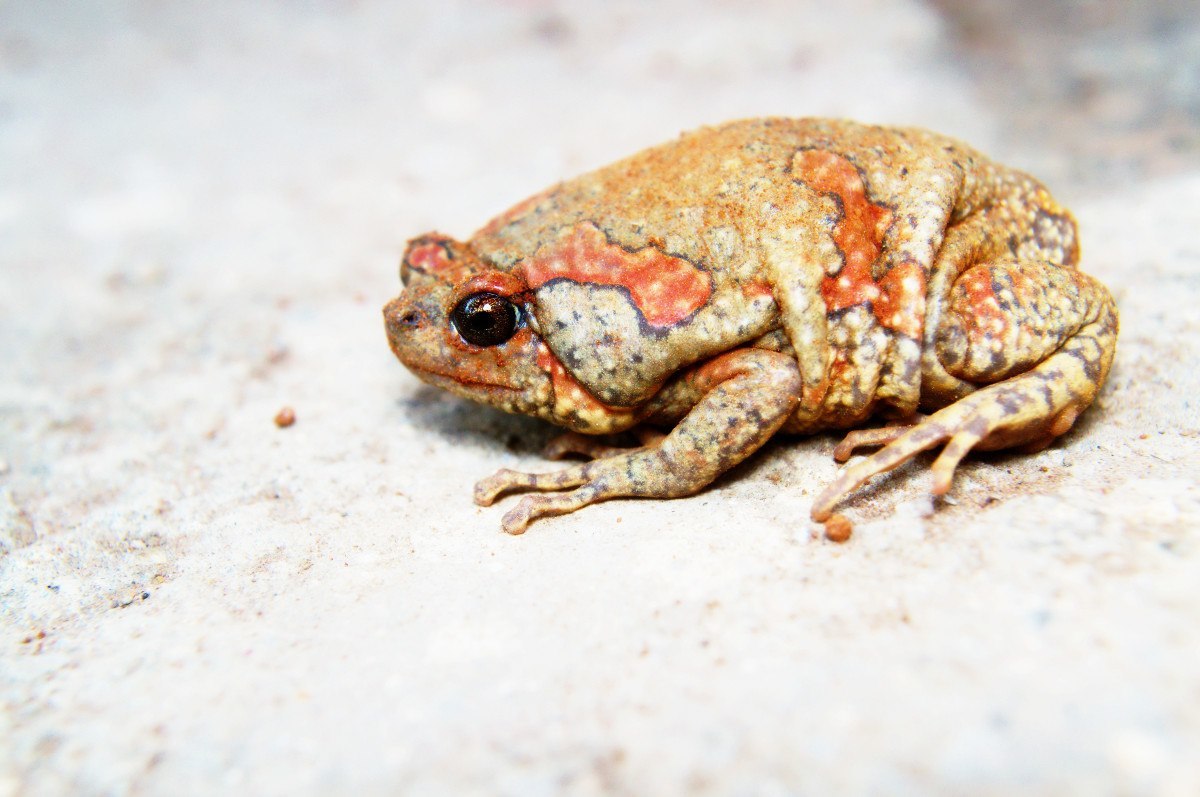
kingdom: Animalia
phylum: Chordata
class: Amphibia
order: Anura
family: Microhylidae
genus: Uperodon
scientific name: Uperodon taprobanicus
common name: Ceylon kaloula
